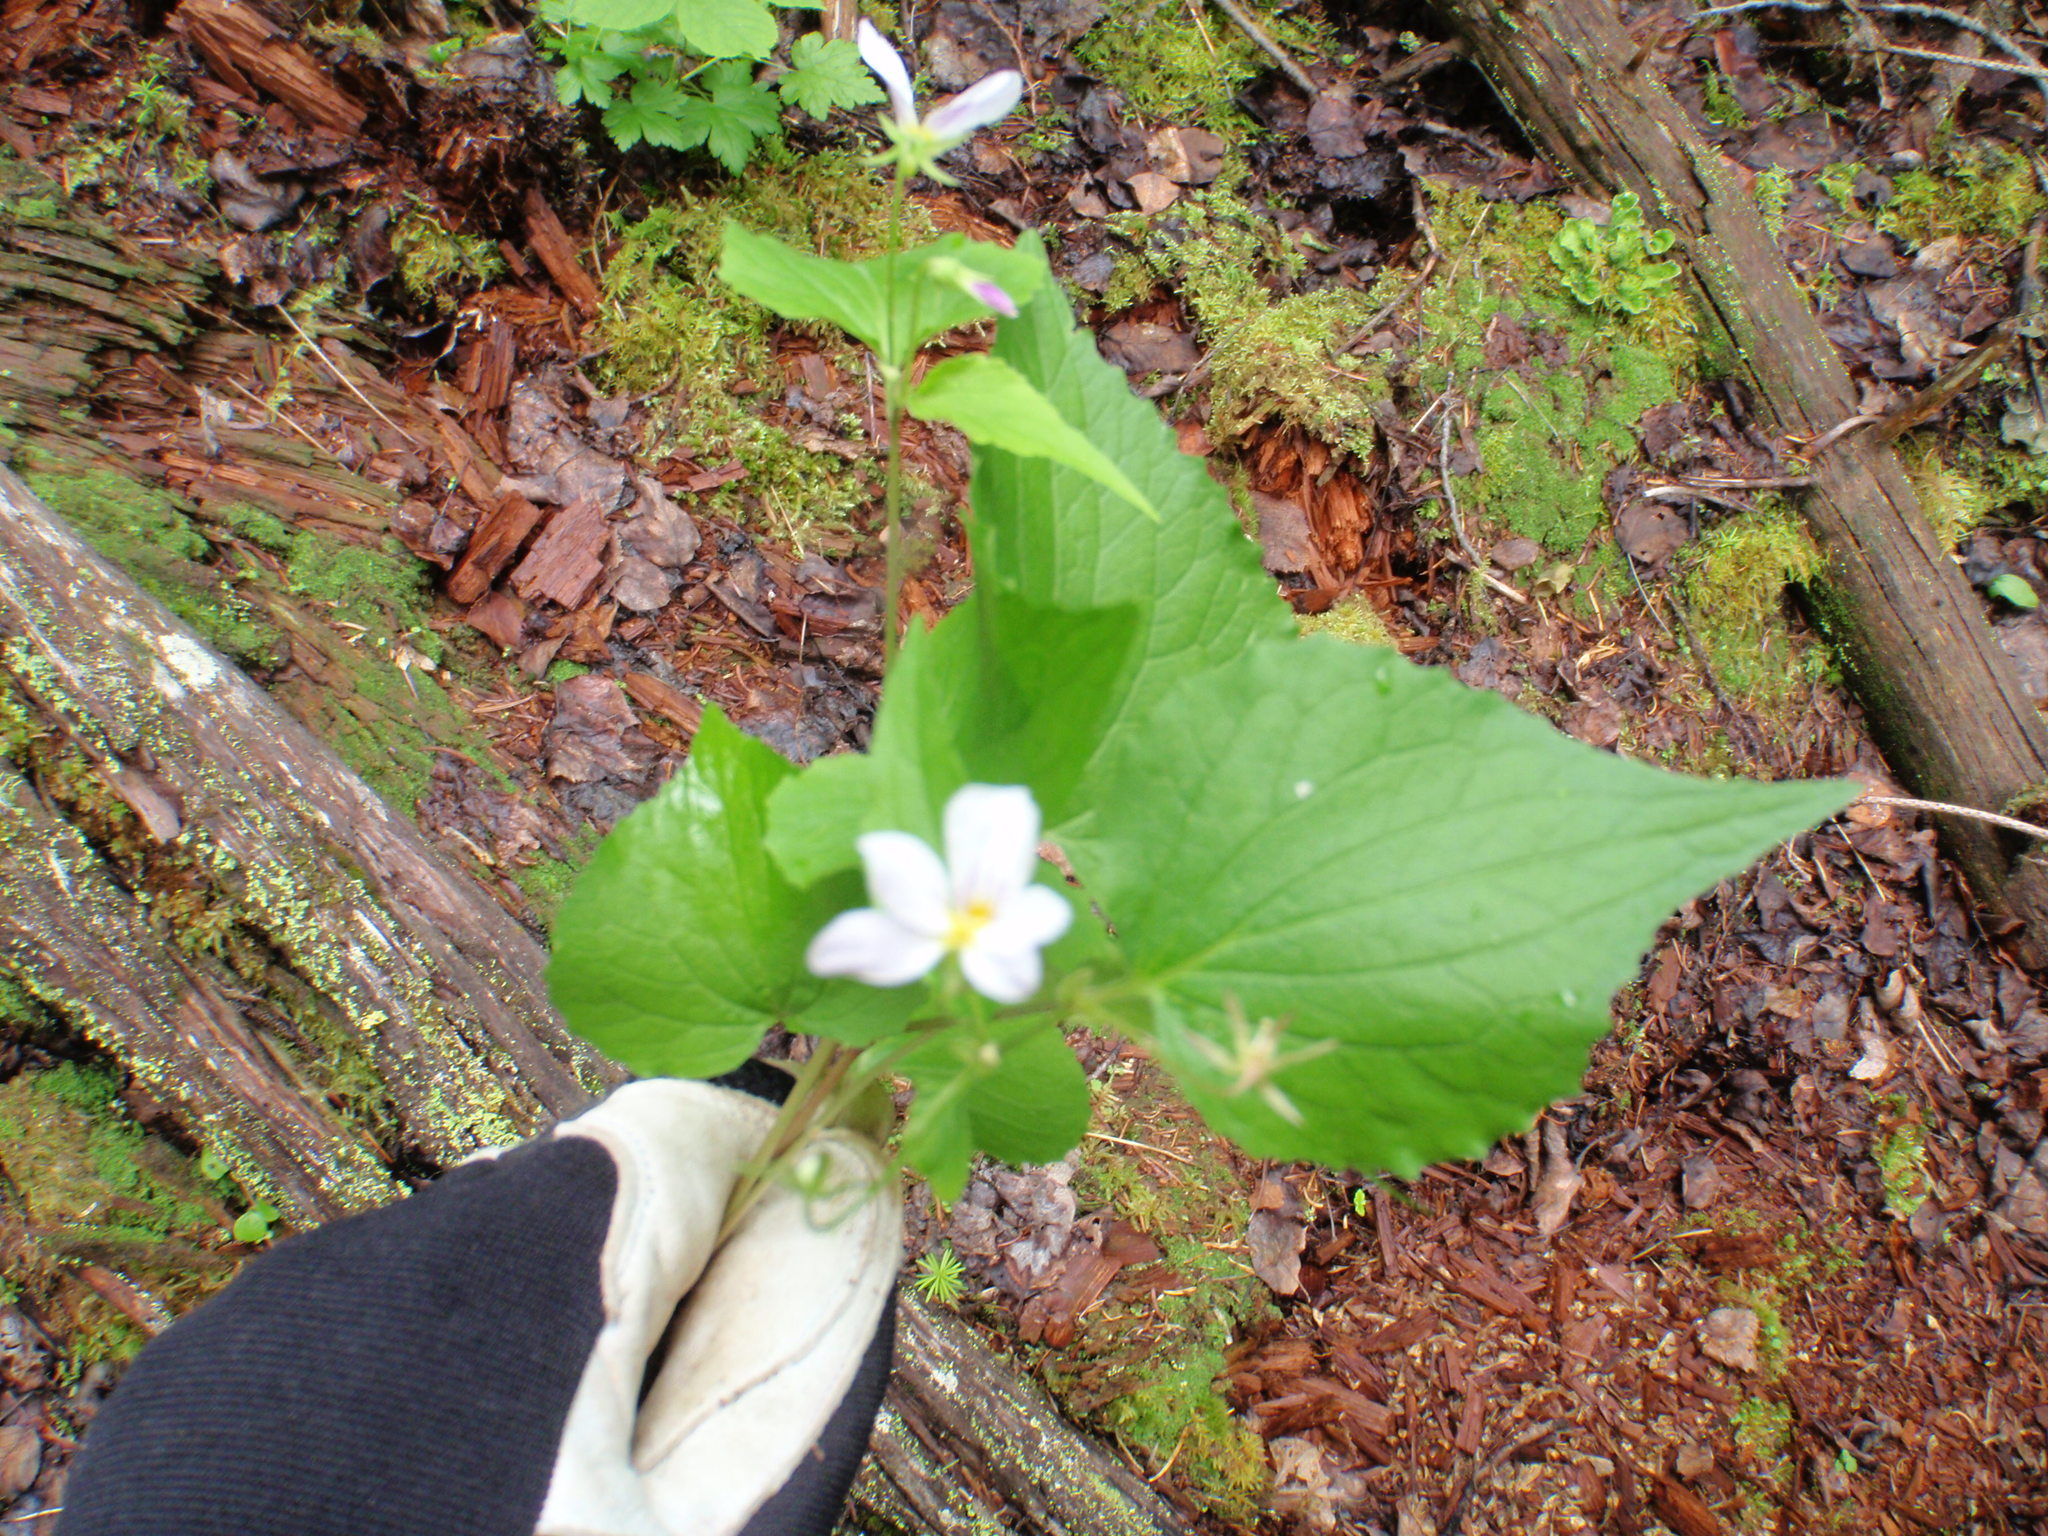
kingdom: Plantae
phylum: Tracheophyta
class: Magnoliopsida
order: Malpighiales
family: Violaceae
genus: Viola
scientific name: Viola canadensis
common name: Canada violet
